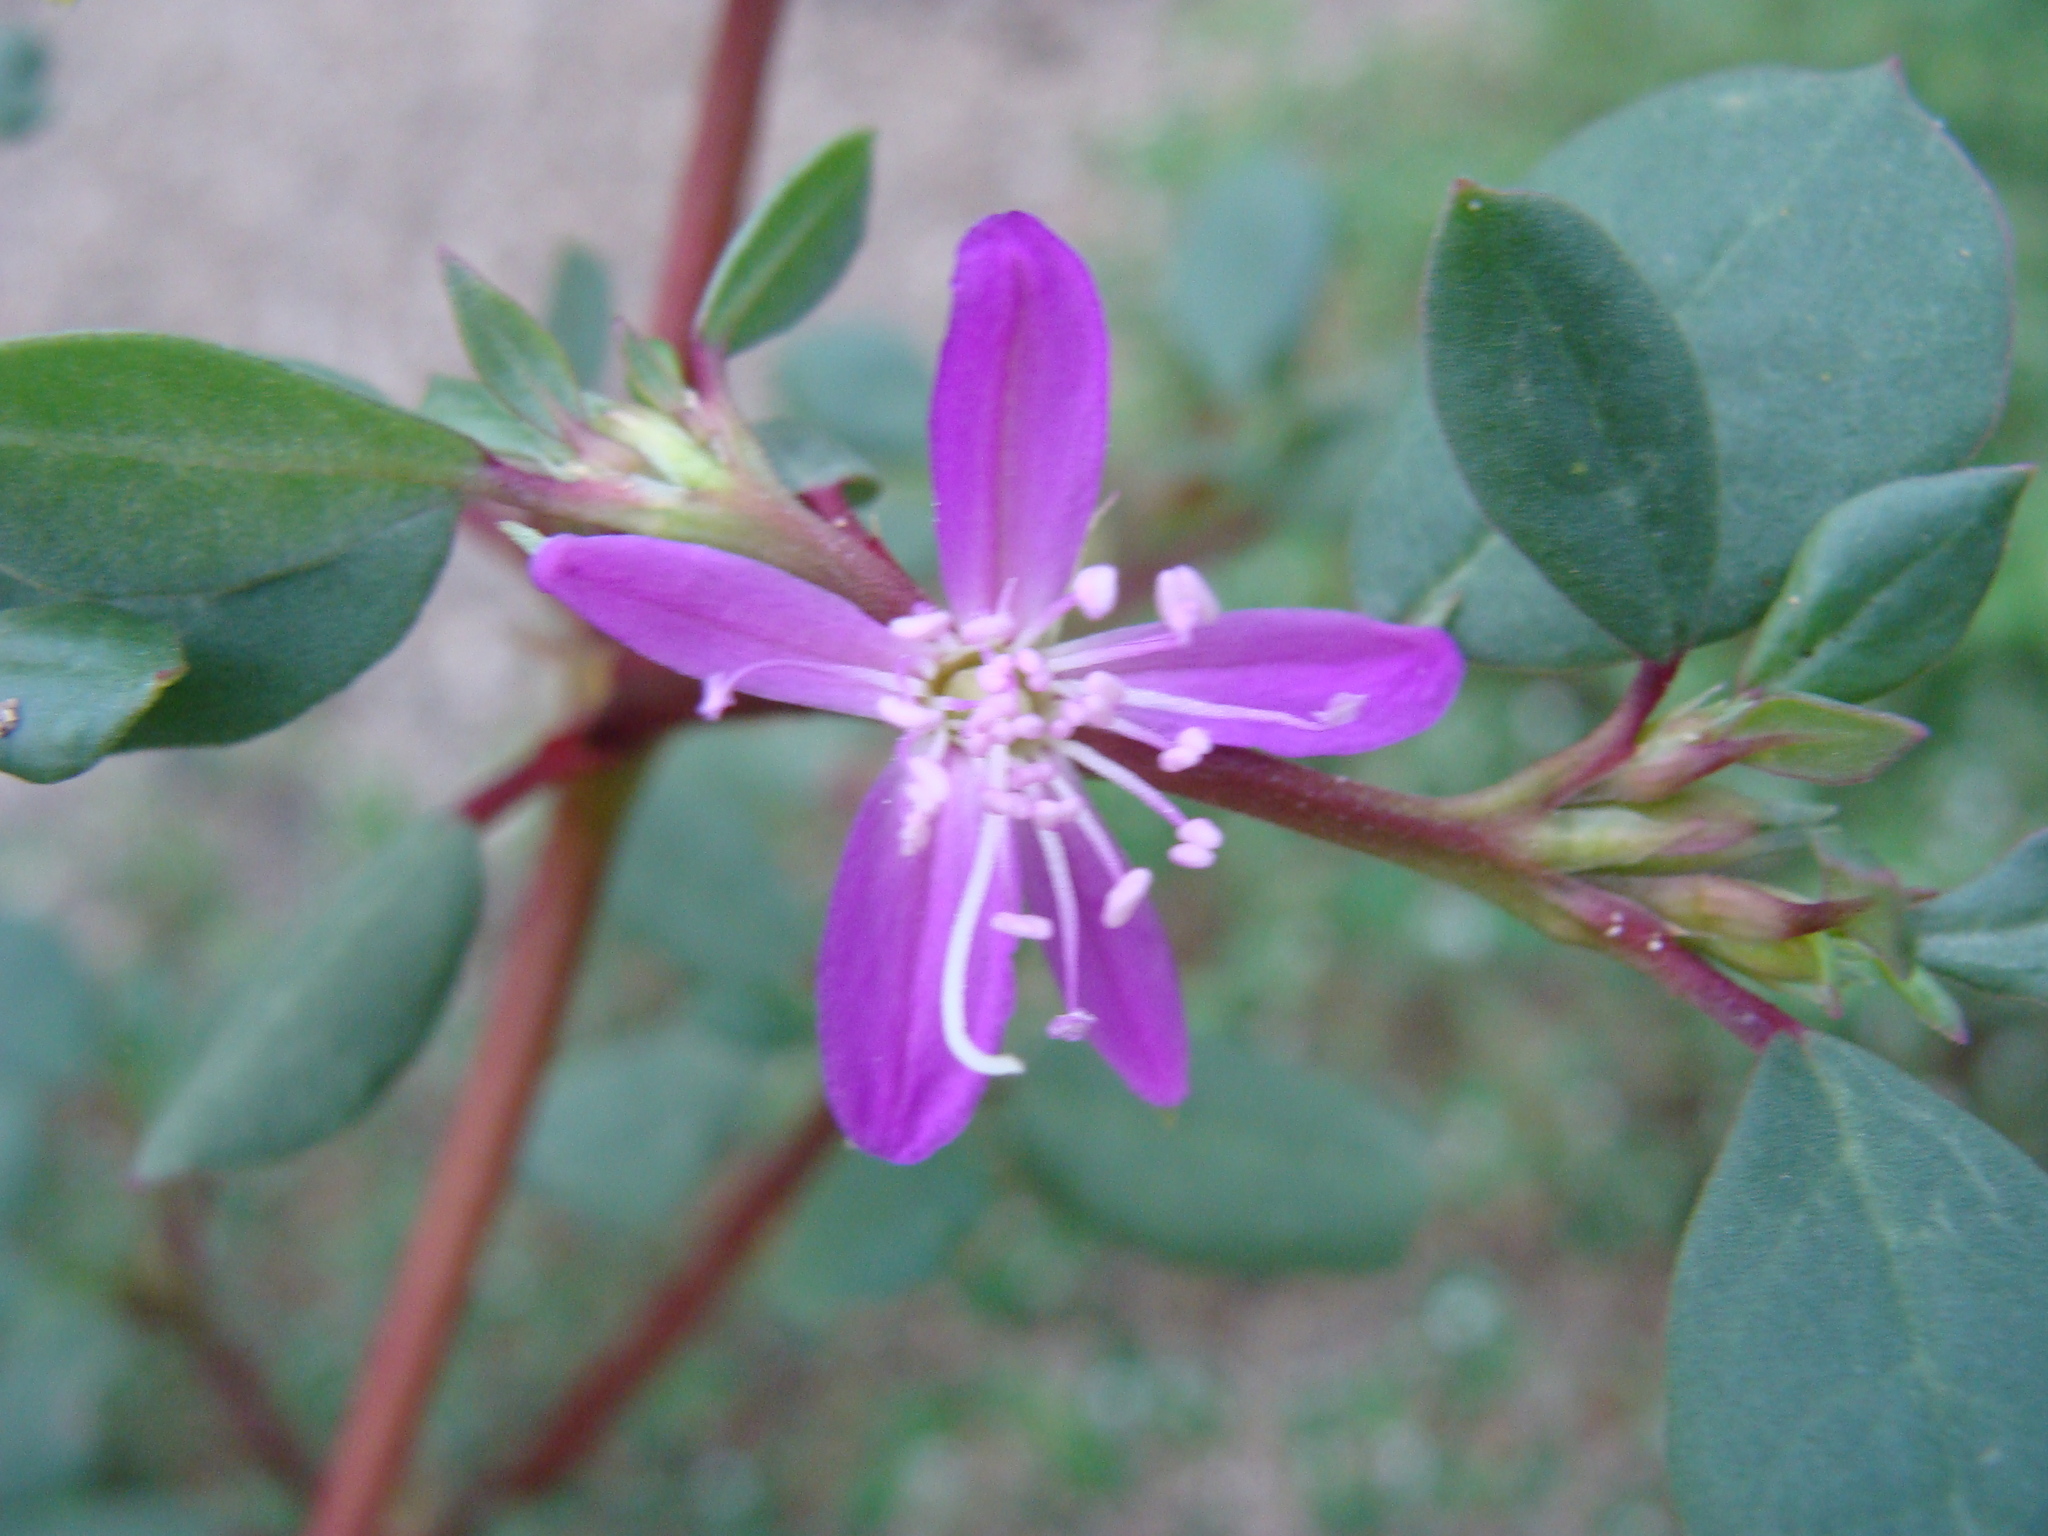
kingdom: Plantae
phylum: Tracheophyta
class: Magnoliopsida
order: Caryophyllales
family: Aizoaceae
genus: Trianthema
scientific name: Trianthema portulacastrum
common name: Desert horsepurslane
